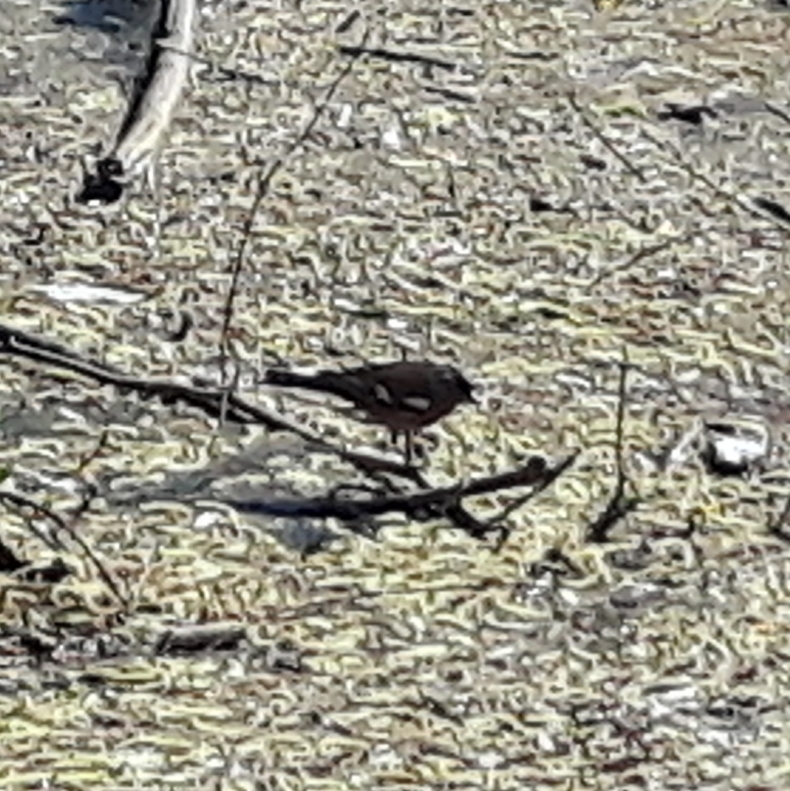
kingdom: Animalia
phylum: Chordata
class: Aves
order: Passeriformes
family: Fringillidae
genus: Fringilla
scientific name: Fringilla coelebs
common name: Common chaffinch
